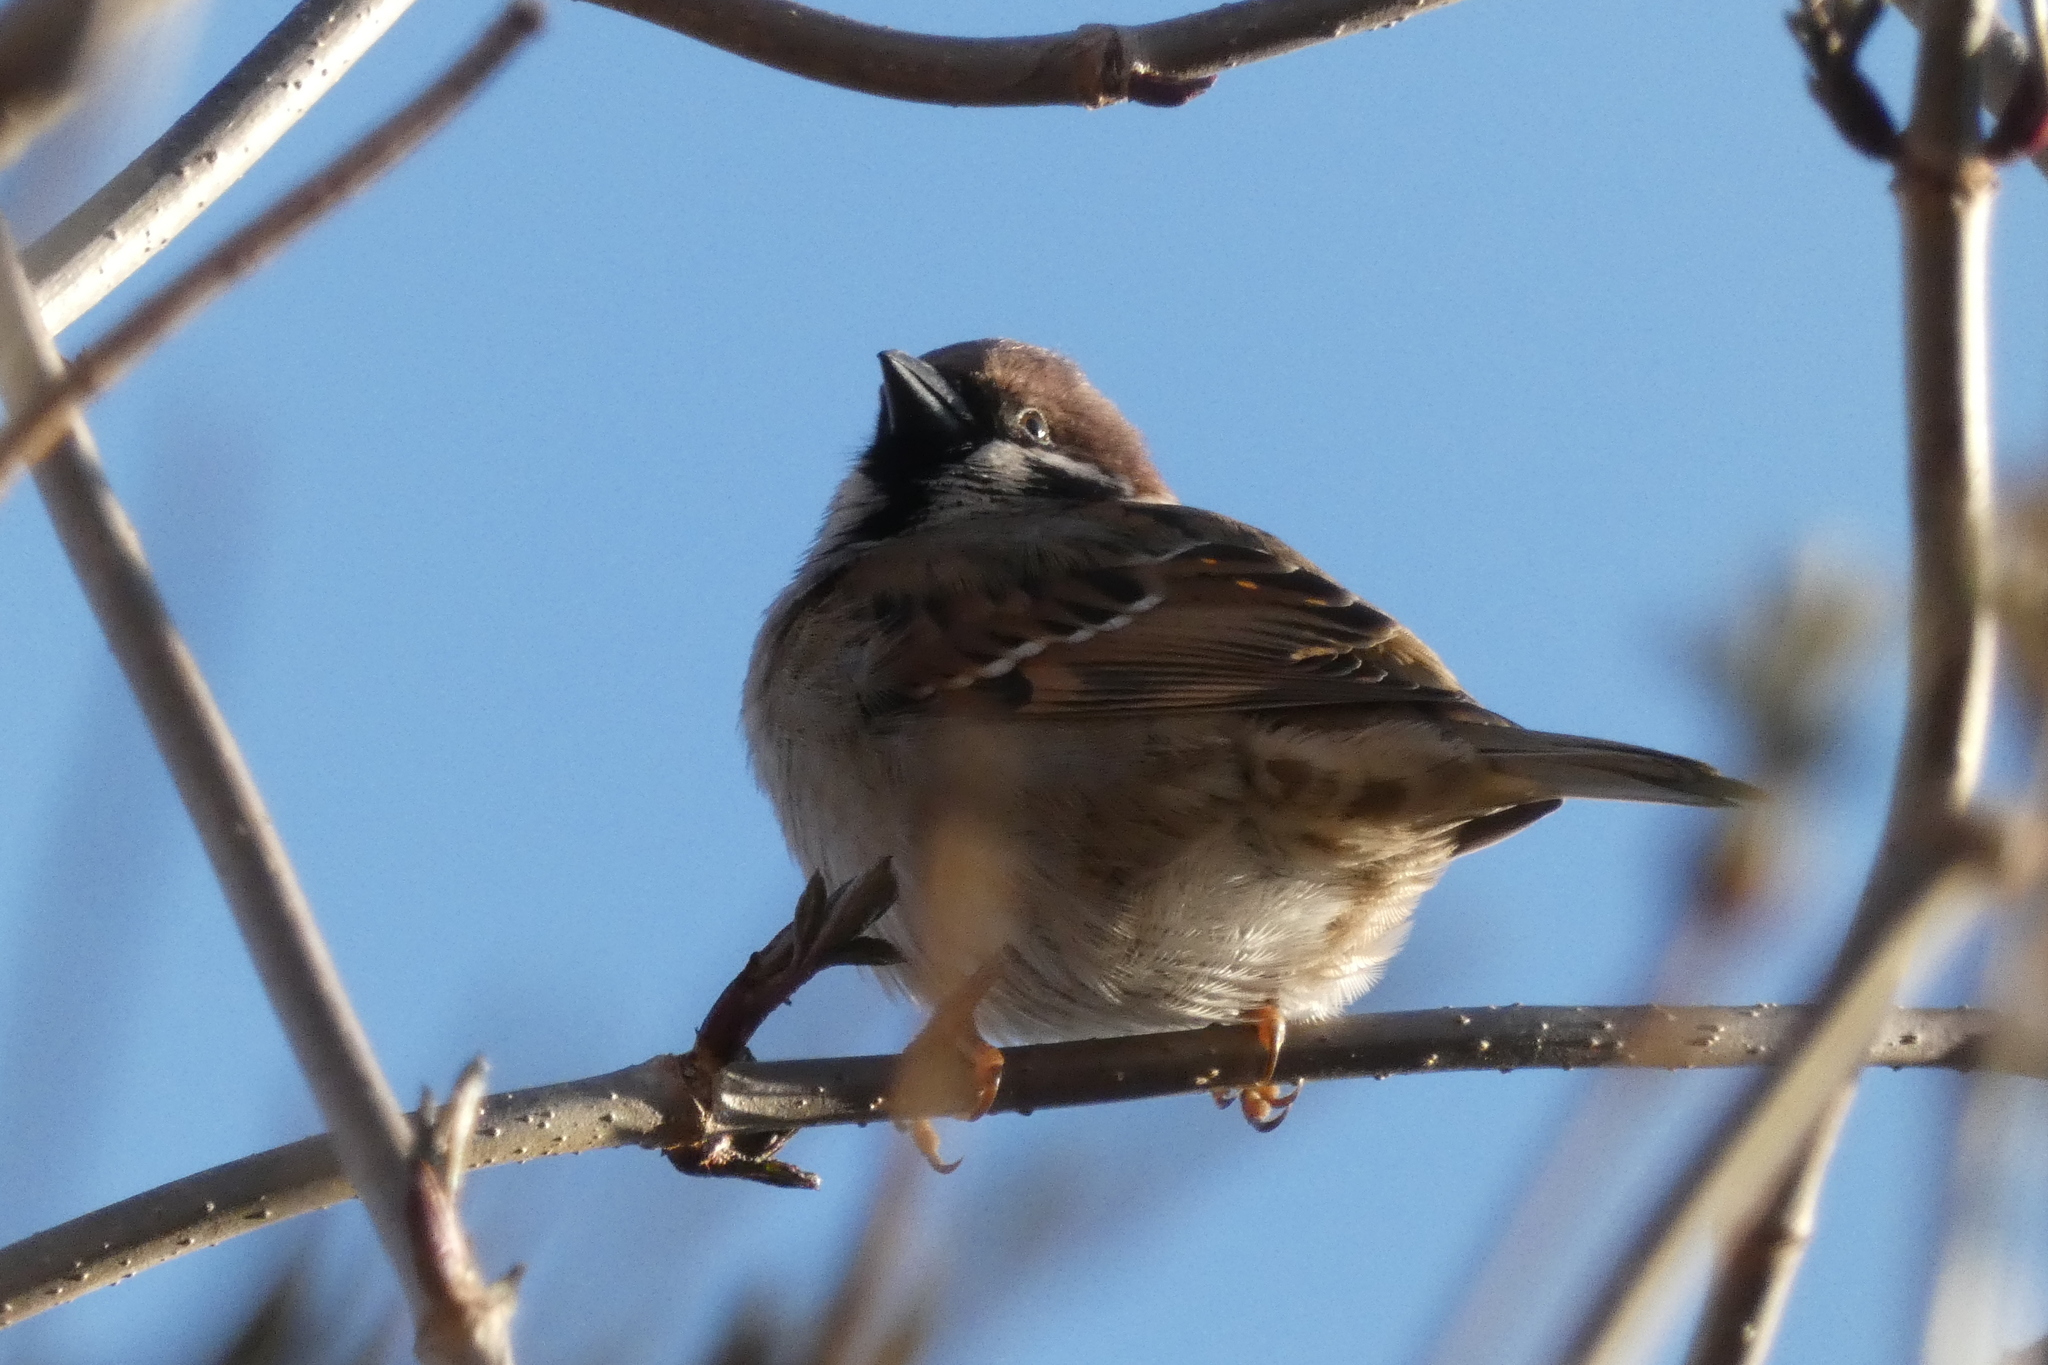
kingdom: Animalia
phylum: Chordata
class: Aves
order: Passeriformes
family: Passeridae
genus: Passer
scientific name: Passer montanus
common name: Eurasian tree sparrow
